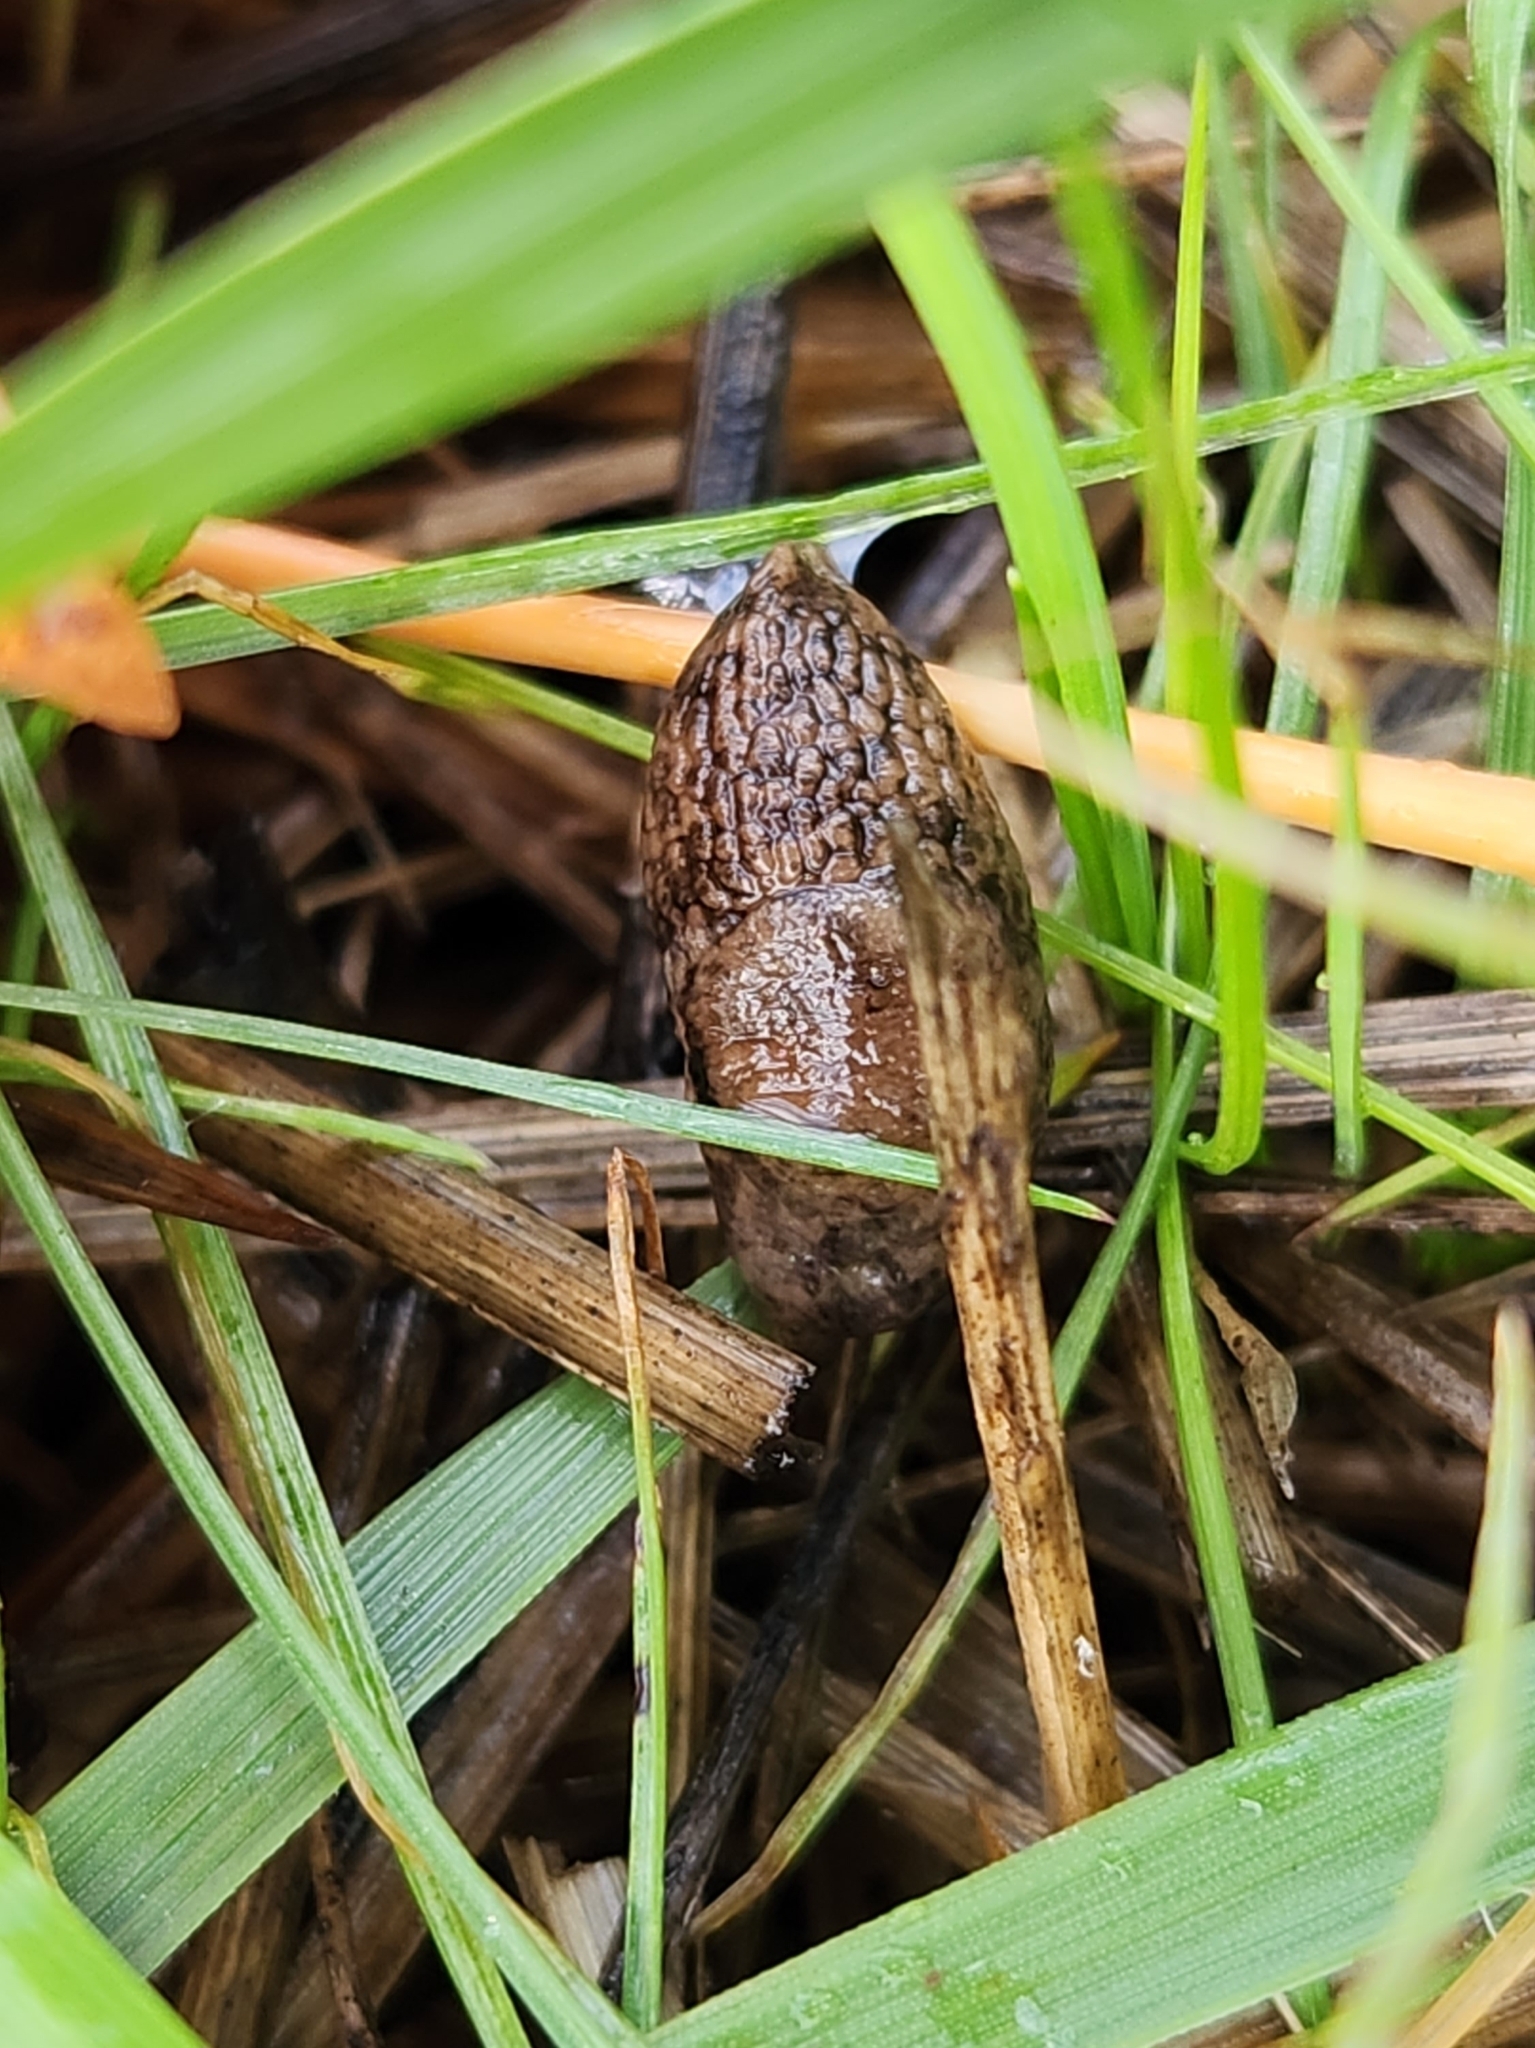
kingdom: Animalia
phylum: Mollusca
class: Gastropoda
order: Stylommatophora
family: Agriolimacidae
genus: Deroceras
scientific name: Deroceras reticulatum
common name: Gray field slug
